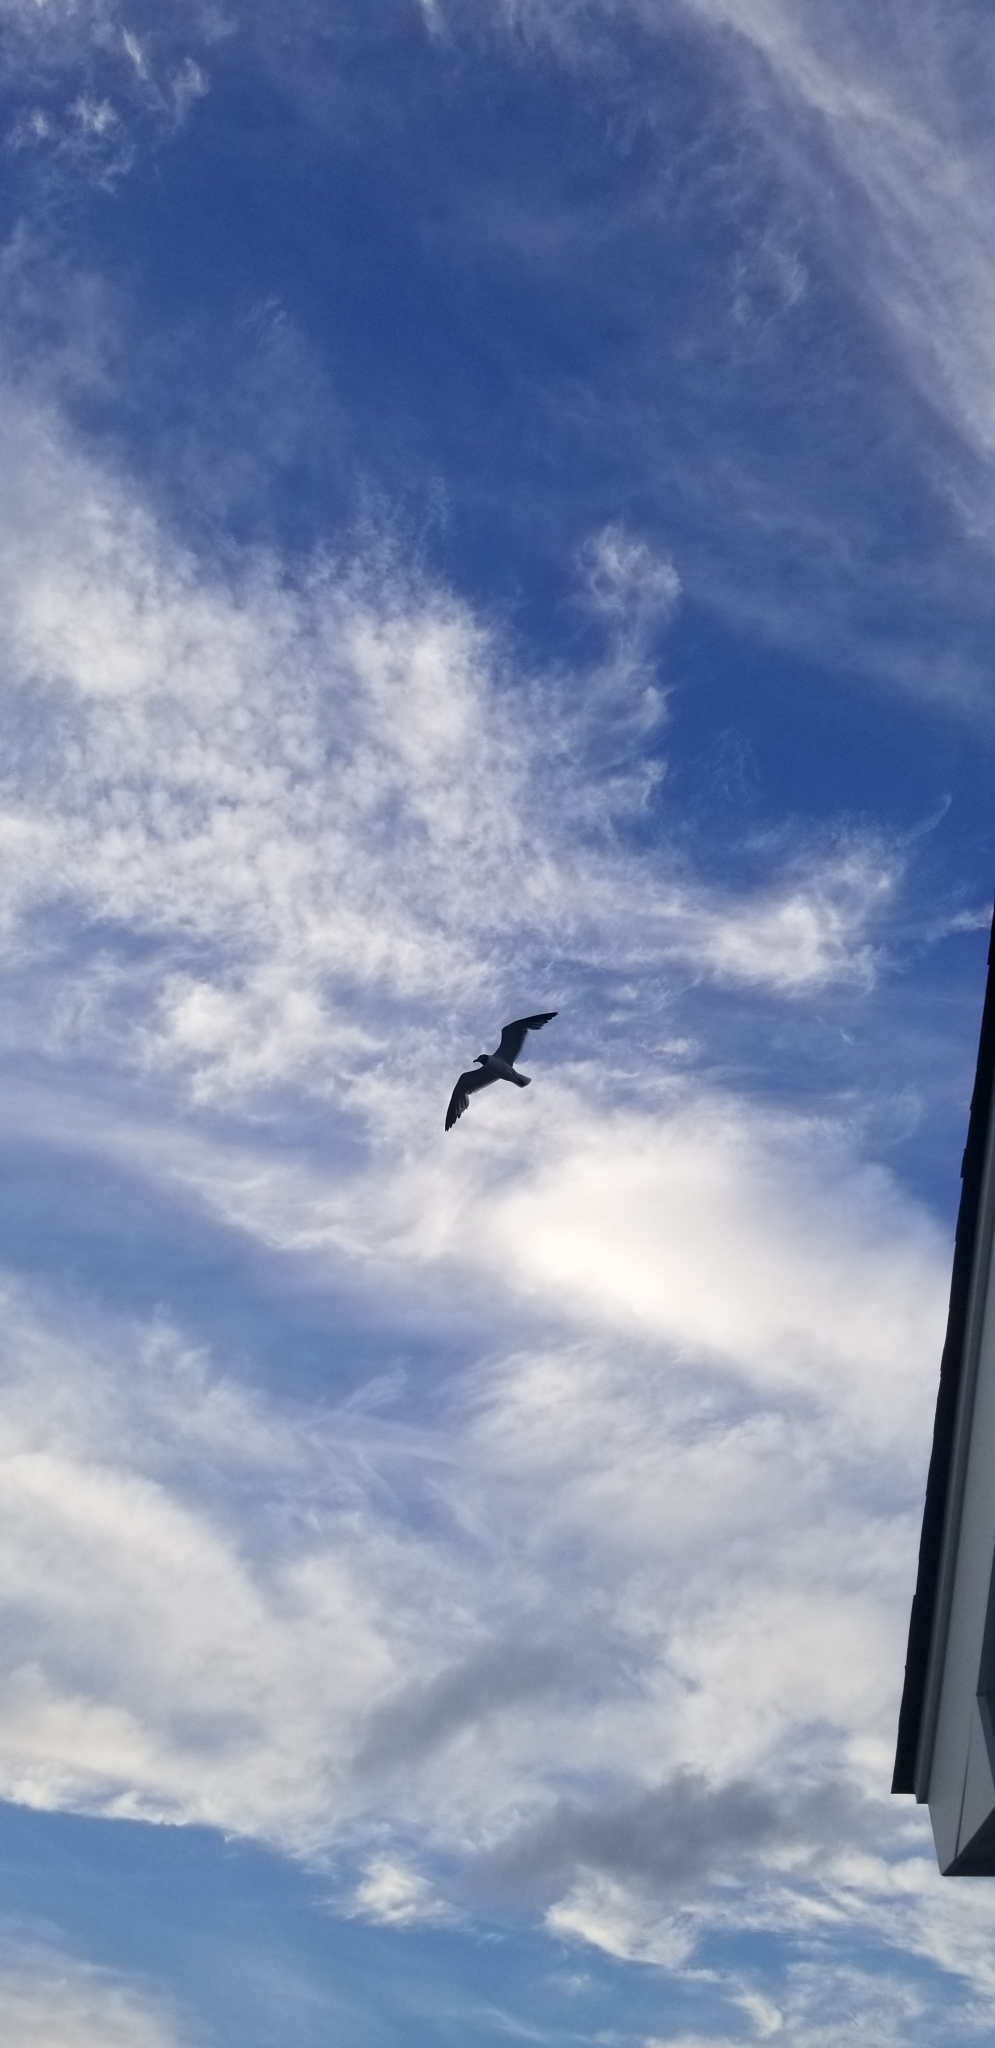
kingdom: Animalia
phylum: Chordata
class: Aves
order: Charadriiformes
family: Laridae
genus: Leucophaeus
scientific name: Leucophaeus atricilla
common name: Laughing gull
